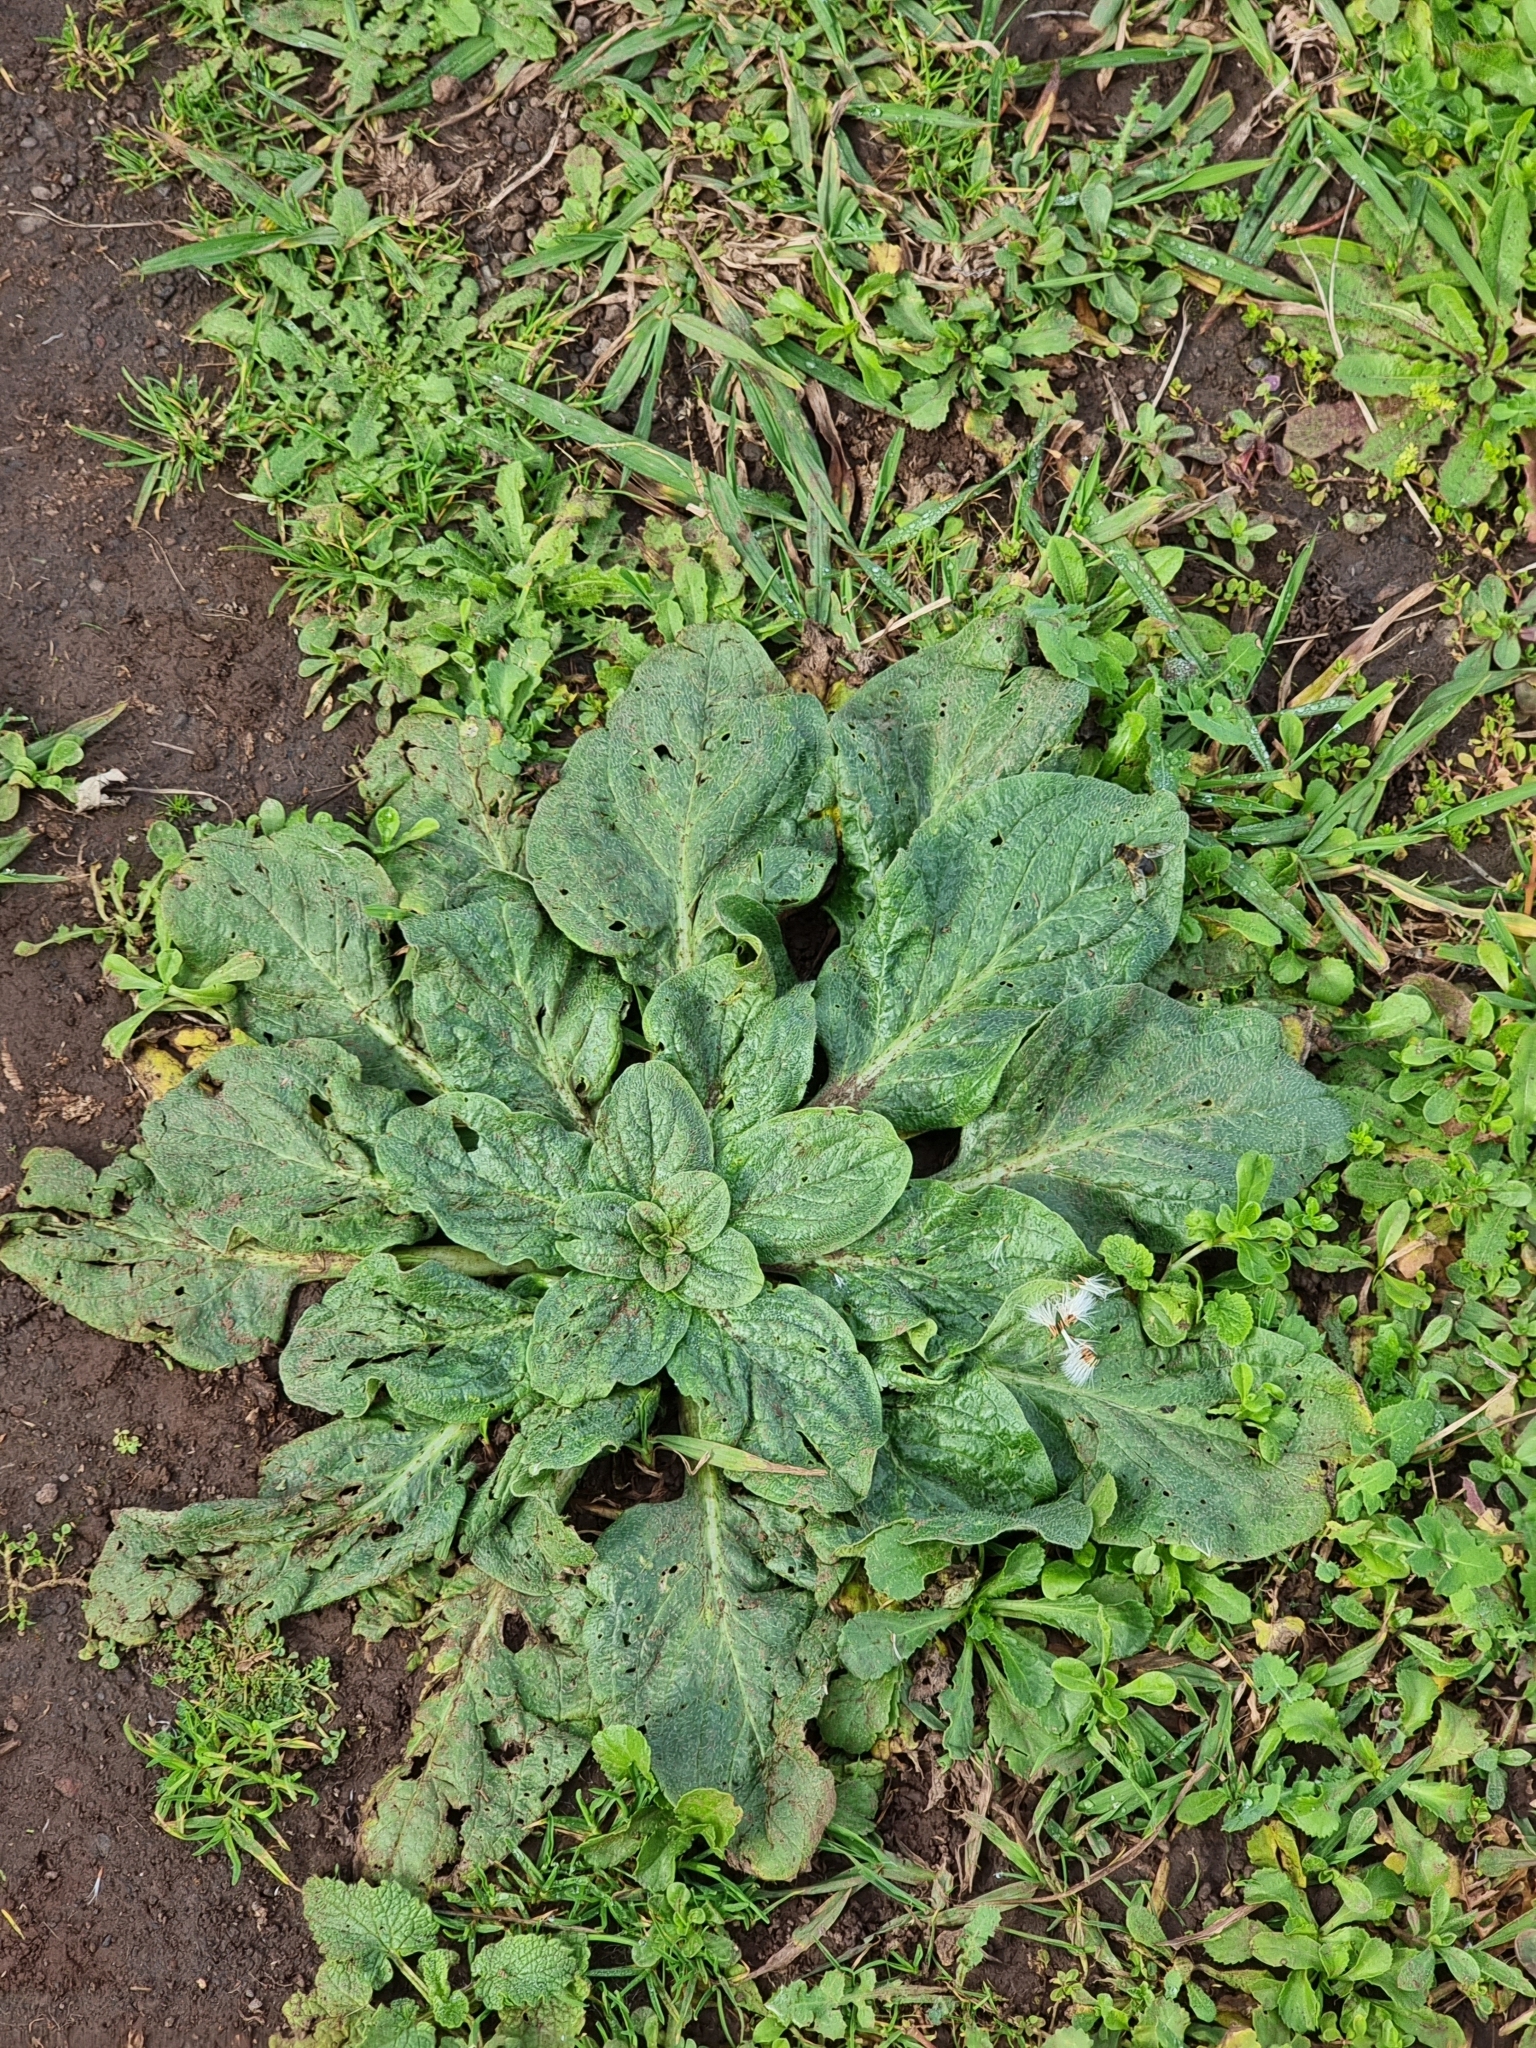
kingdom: Plantae
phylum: Tracheophyta
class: Magnoliopsida
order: Boraginales
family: Boraginaceae
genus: Echium
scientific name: Echium plantagineum
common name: Purple viper's-bugloss
